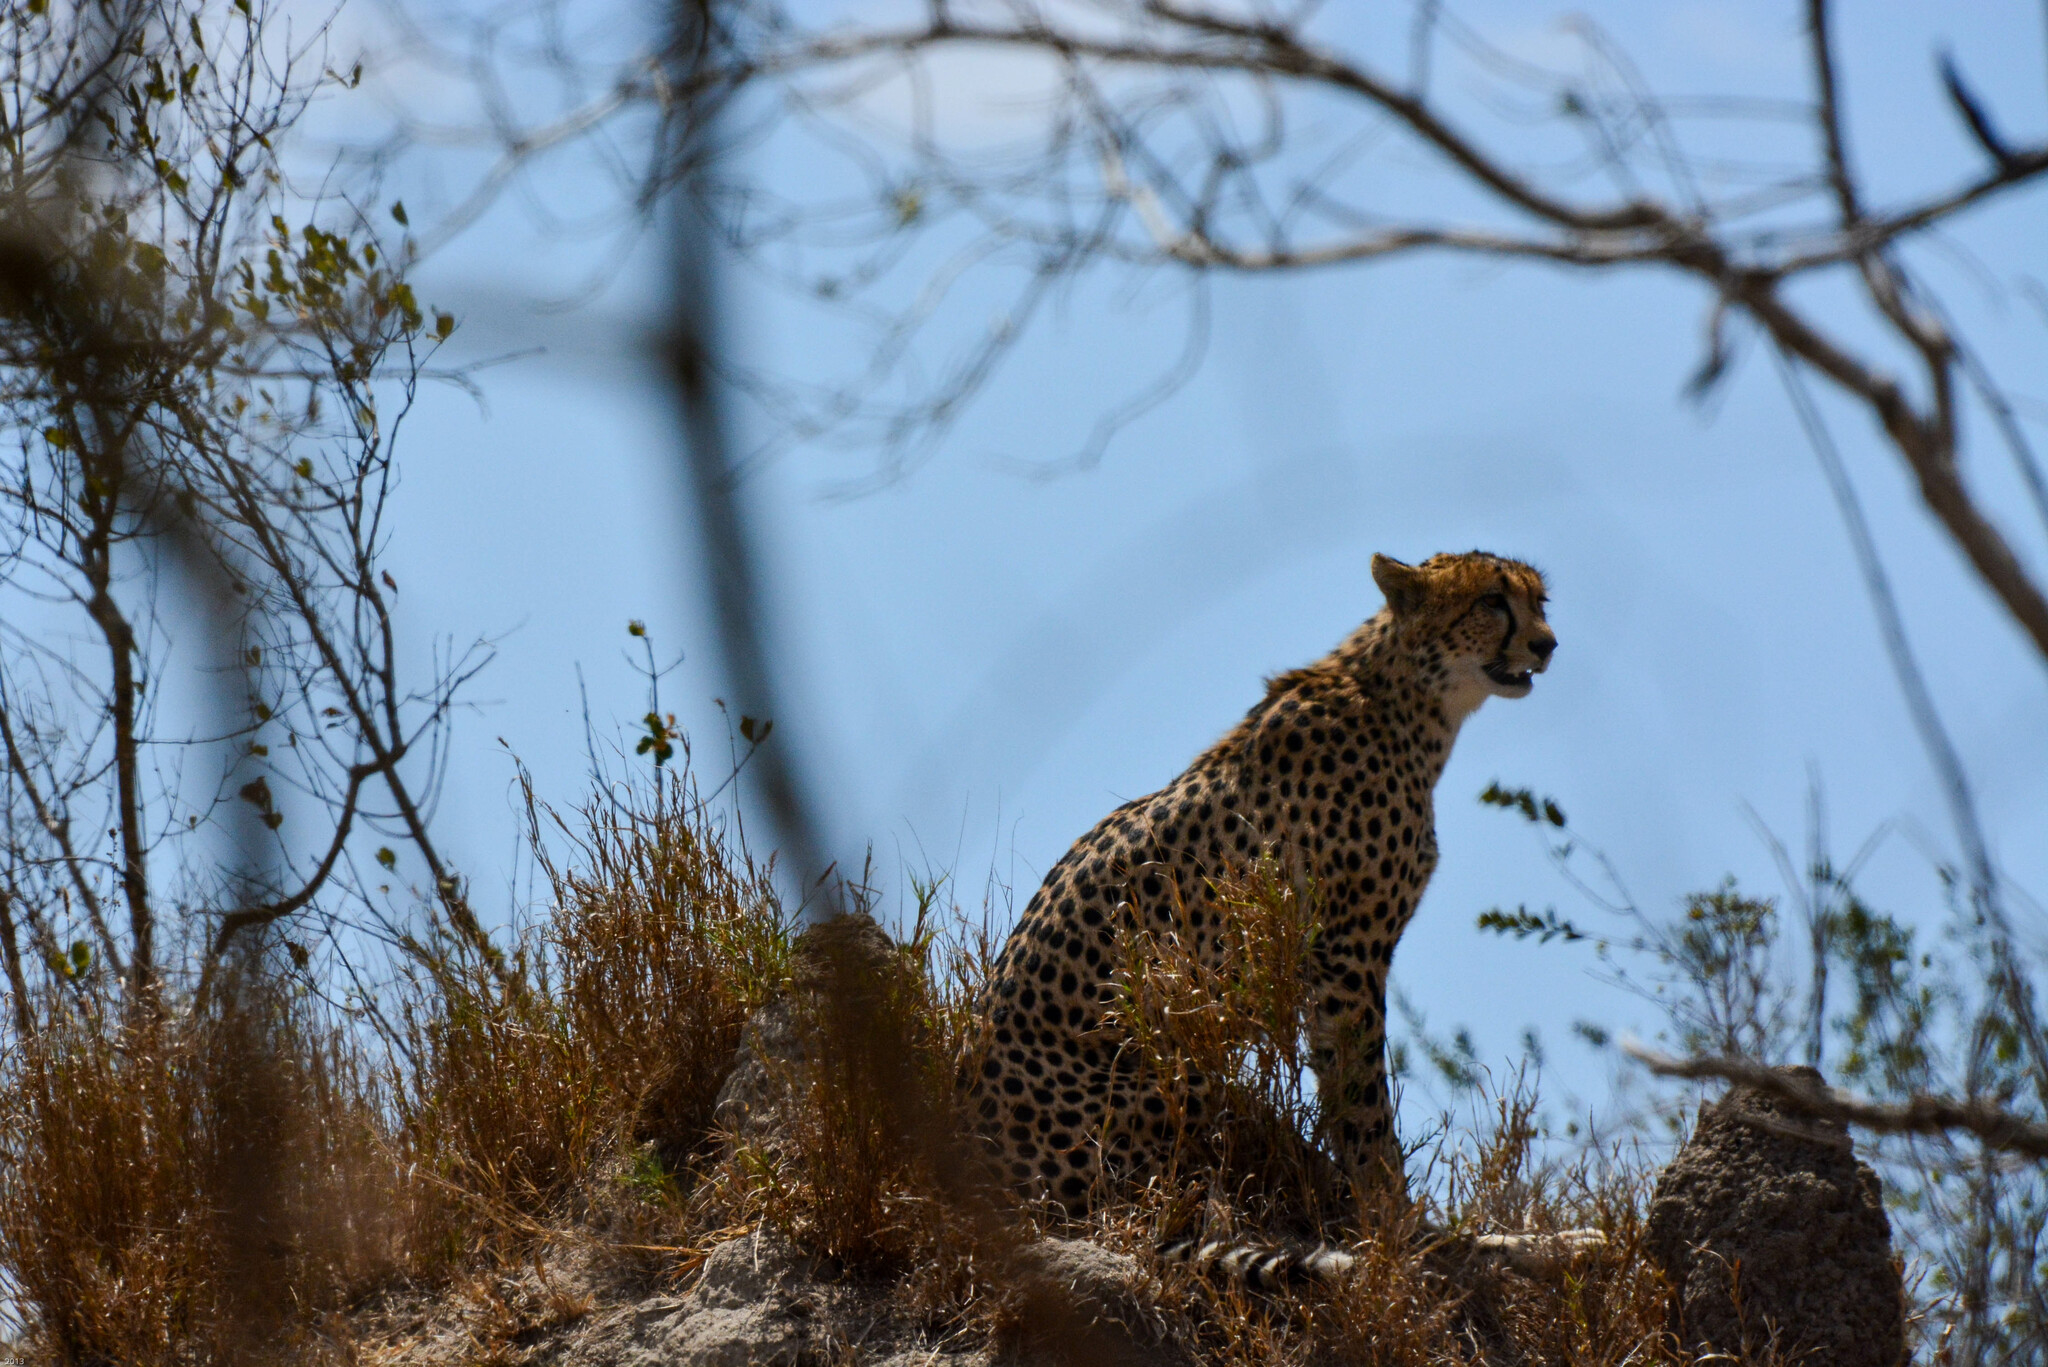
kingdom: Animalia
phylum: Chordata
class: Mammalia
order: Carnivora
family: Felidae
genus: Acinonyx
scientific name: Acinonyx jubatus
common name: Cheetah
